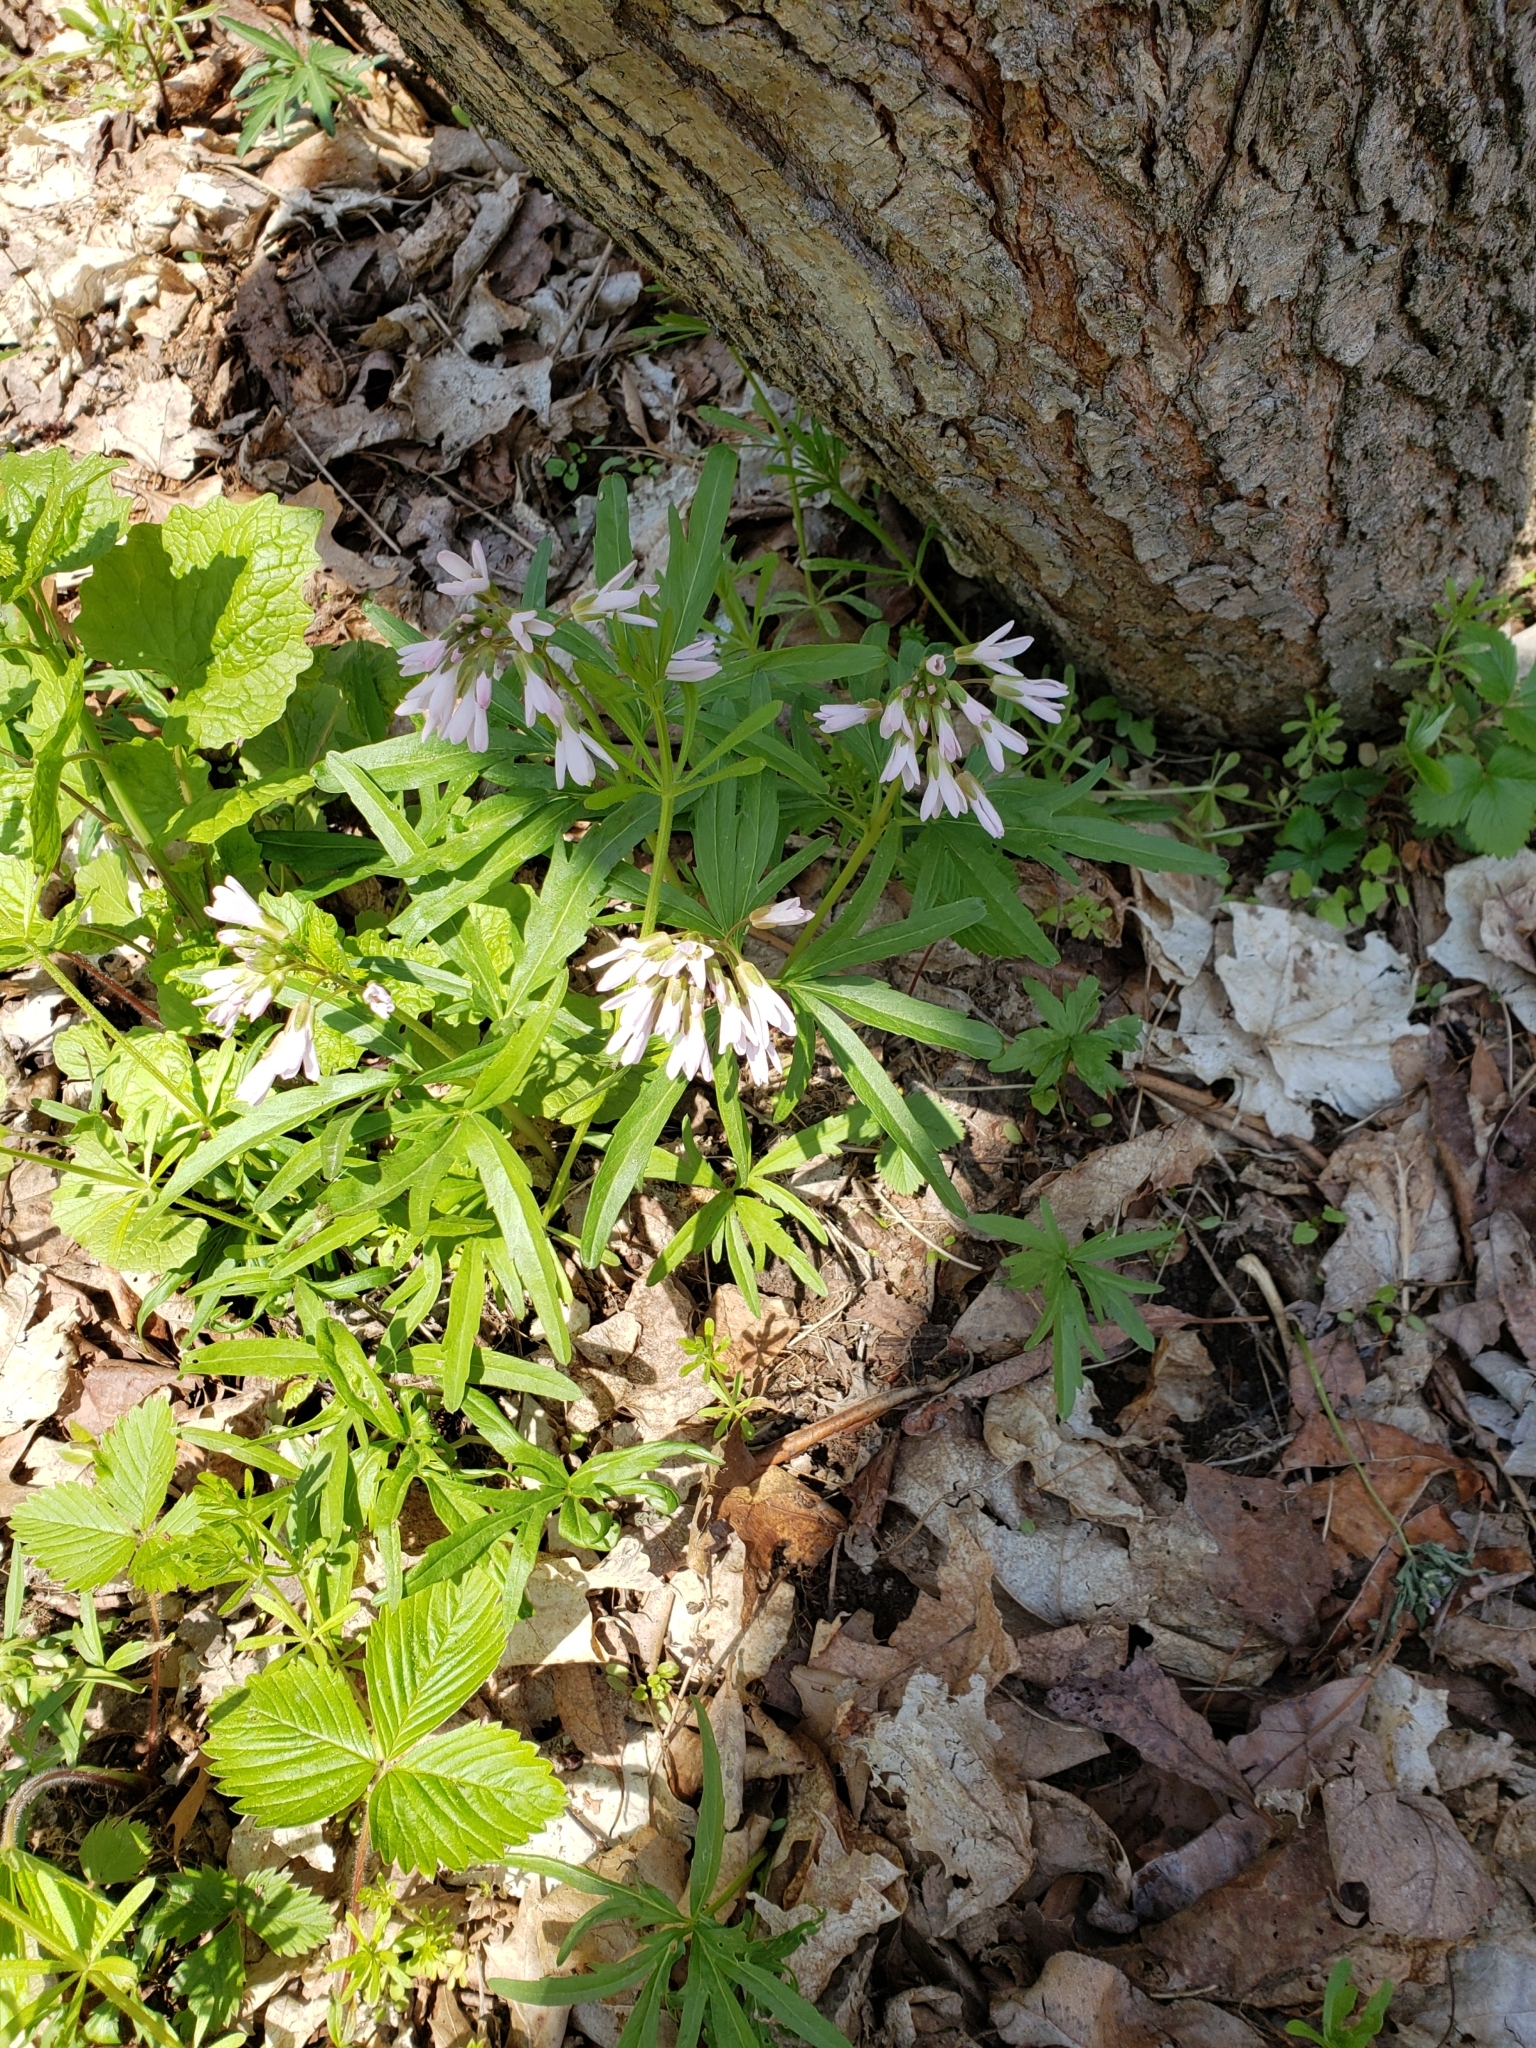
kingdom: Plantae
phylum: Tracheophyta
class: Magnoliopsida
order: Brassicales
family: Brassicaceae
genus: Cardamine
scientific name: Cardamine concatenata
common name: Cut-leaf toothcup
